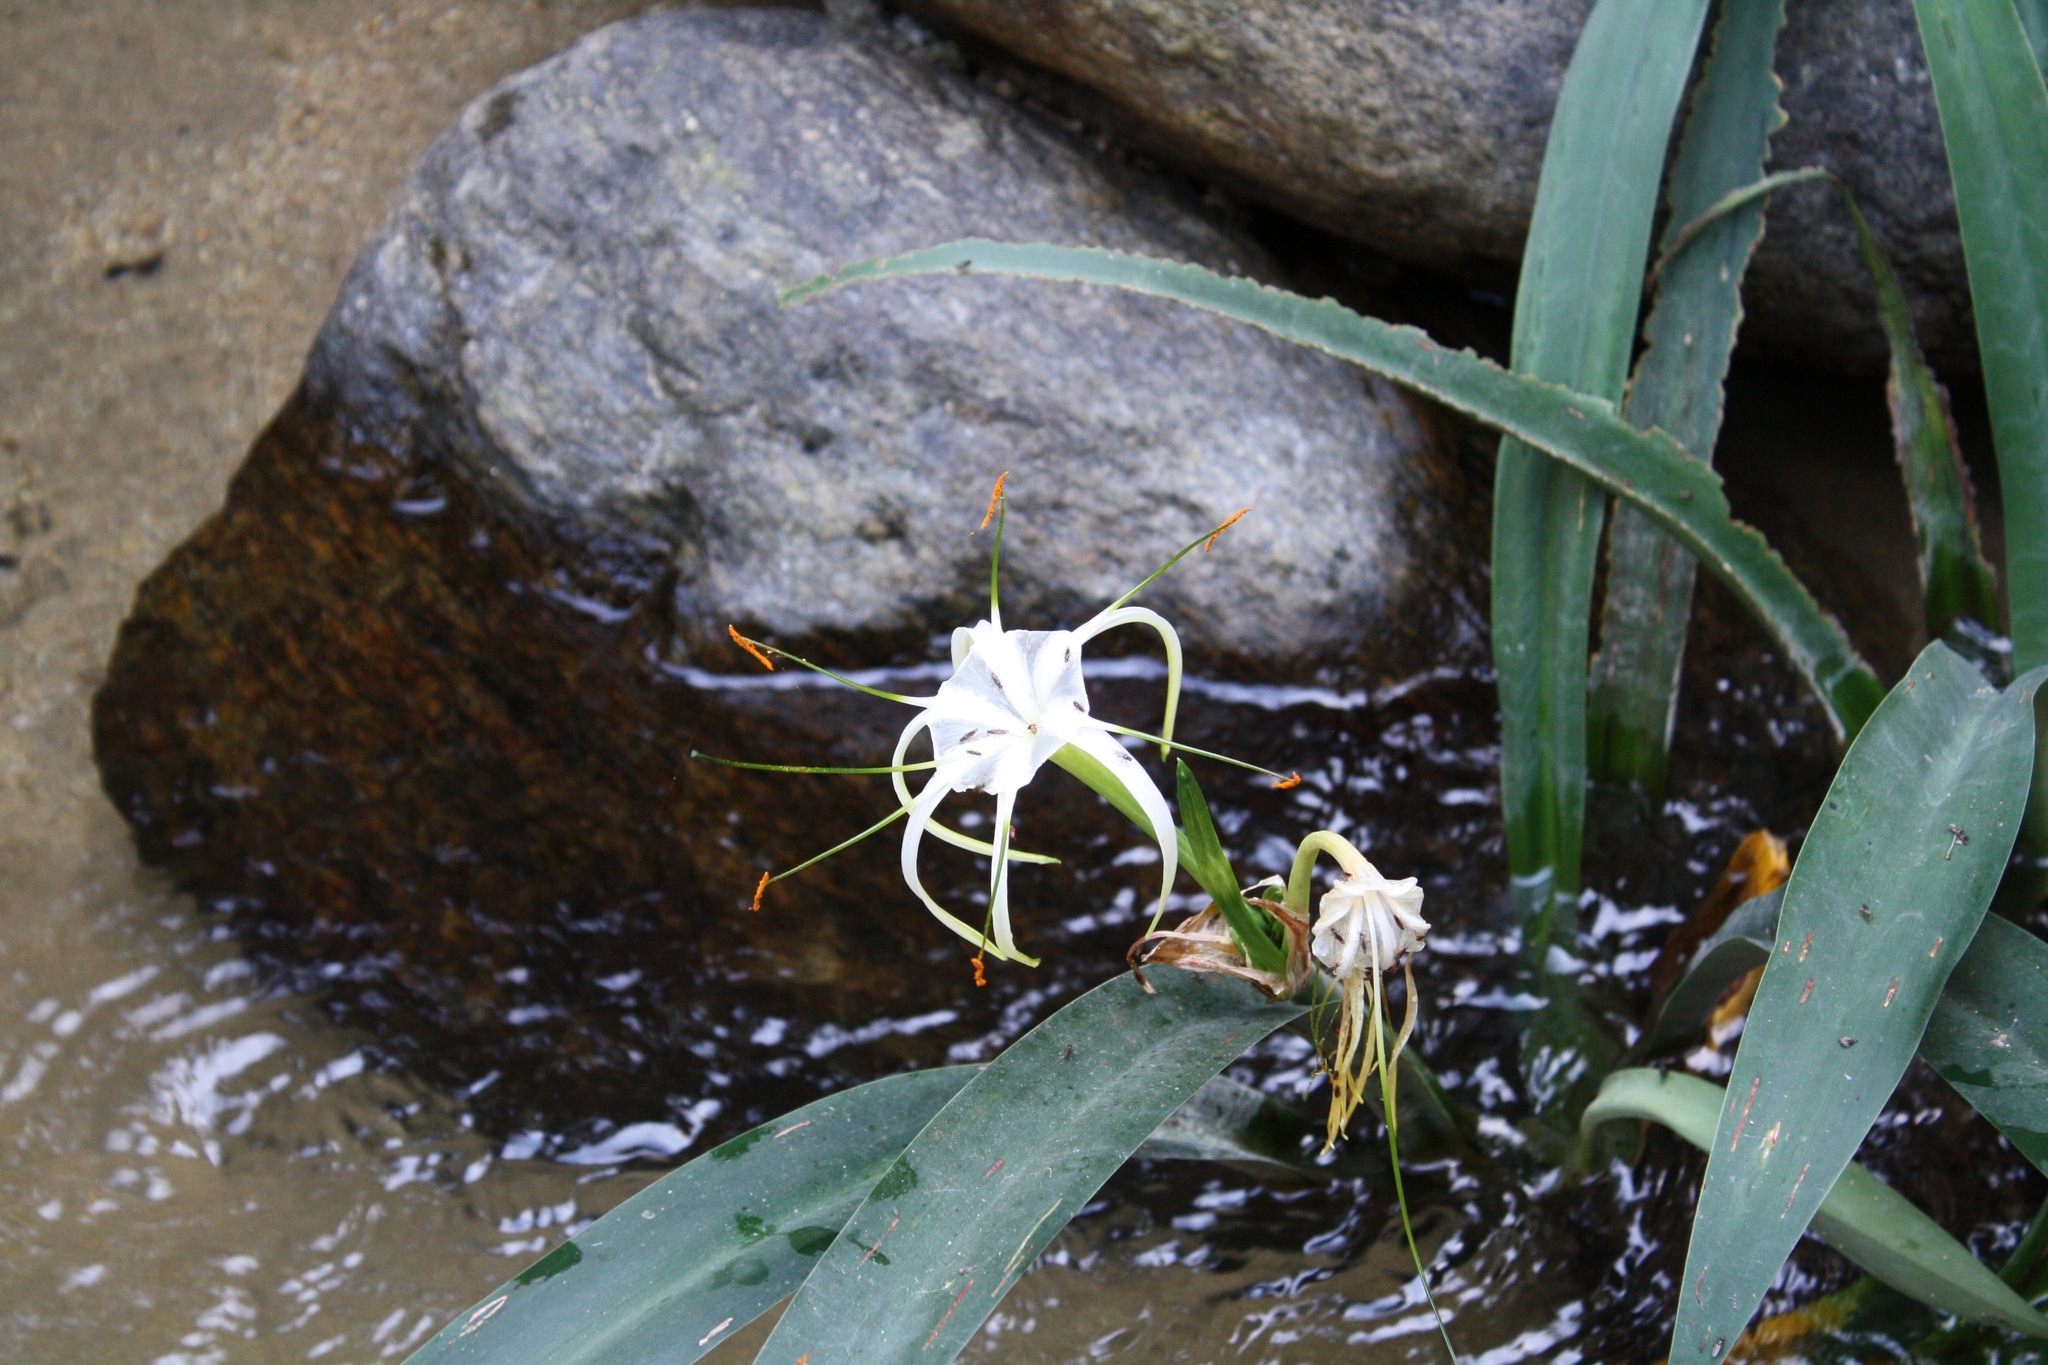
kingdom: Plantae
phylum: Tracheophyta
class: Liliopsida
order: Asparagales
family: Amaryllidaceae
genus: Hymenocallis
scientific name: Hymenocallis acutifolia
